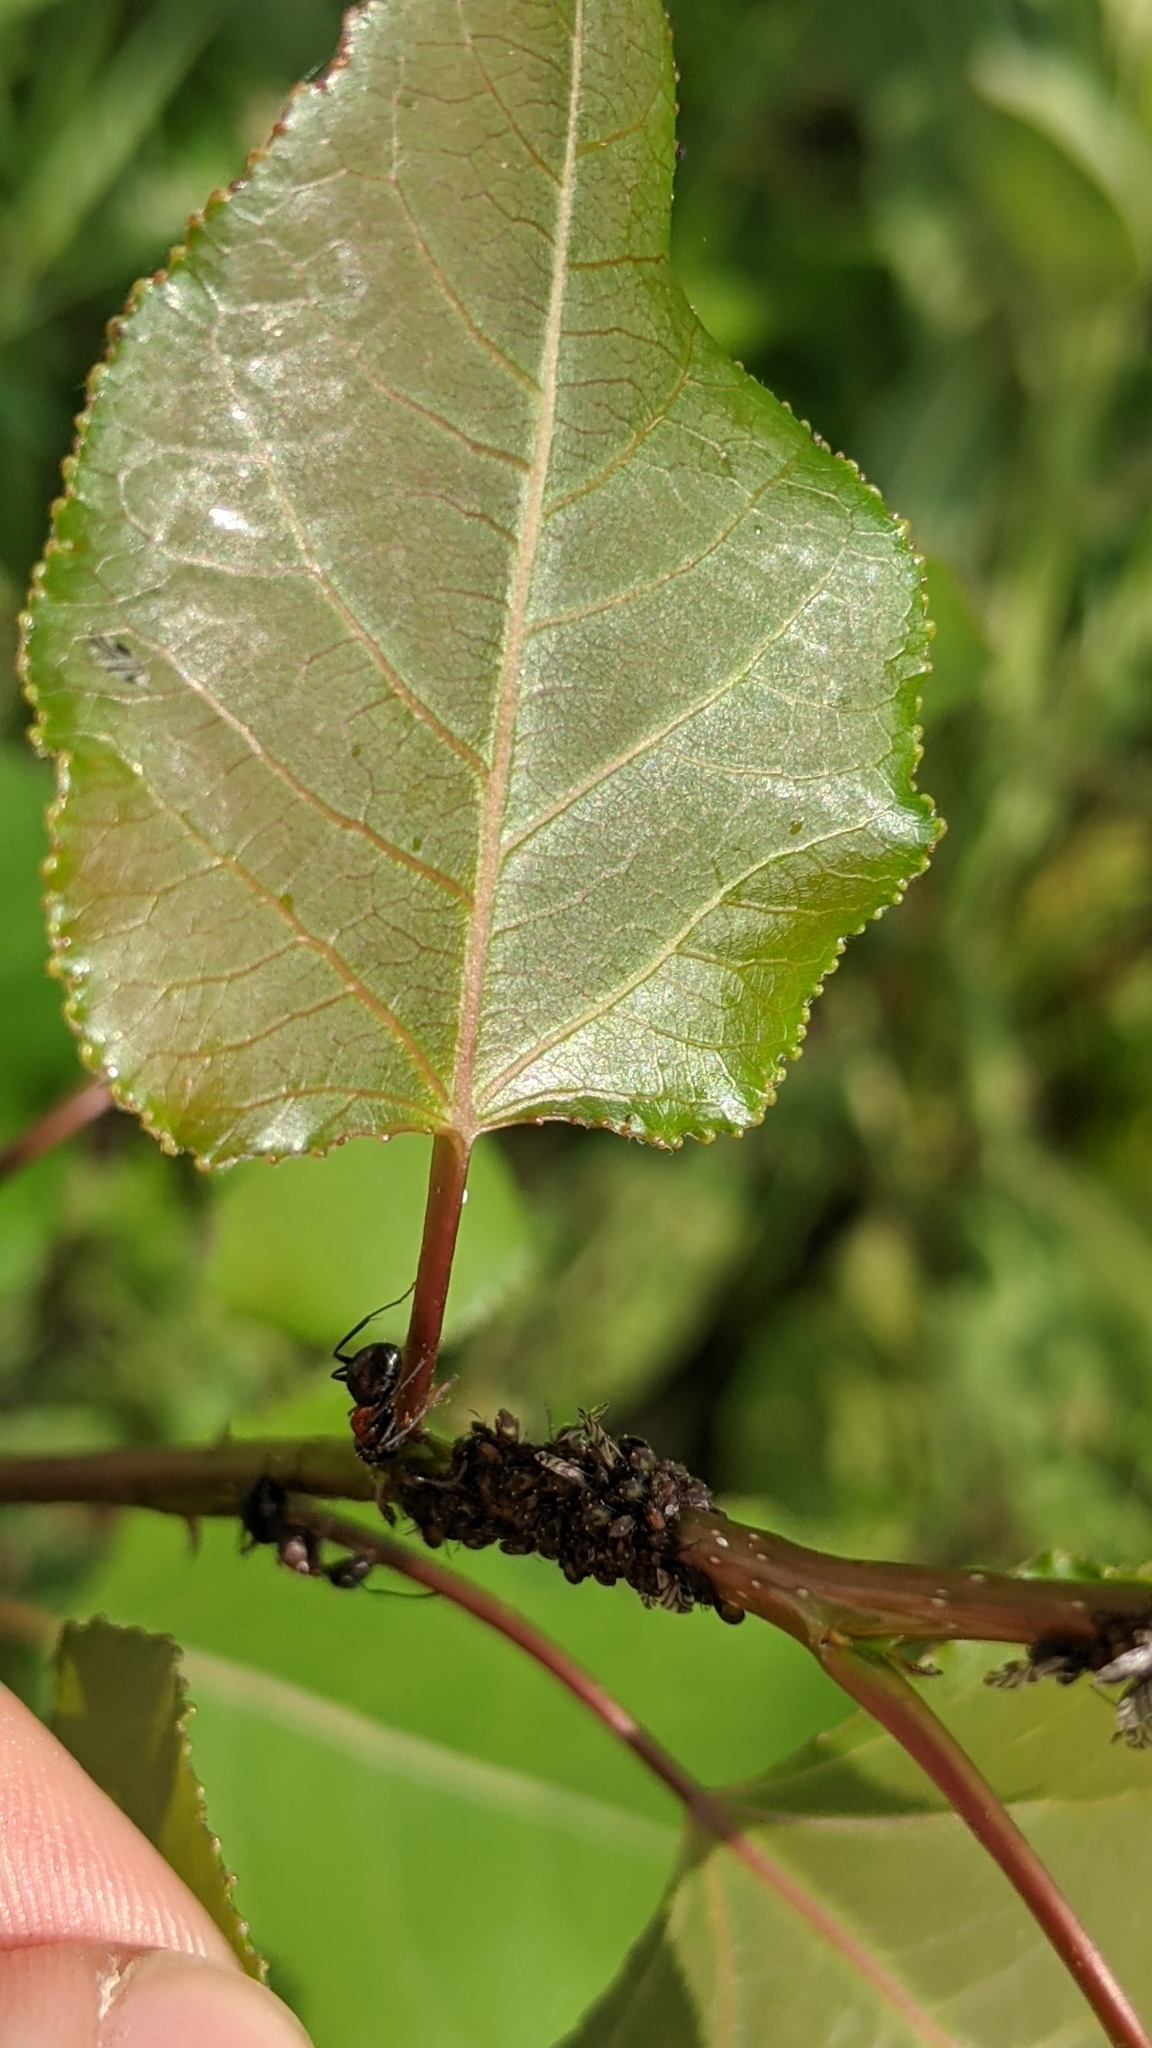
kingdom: Animalia
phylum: Arthropoda
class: Insecta
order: Hemiptera
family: Aphididae
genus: Chaitophorus
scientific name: Chaitophorus populicola
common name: Smokywinged poplar aphid
